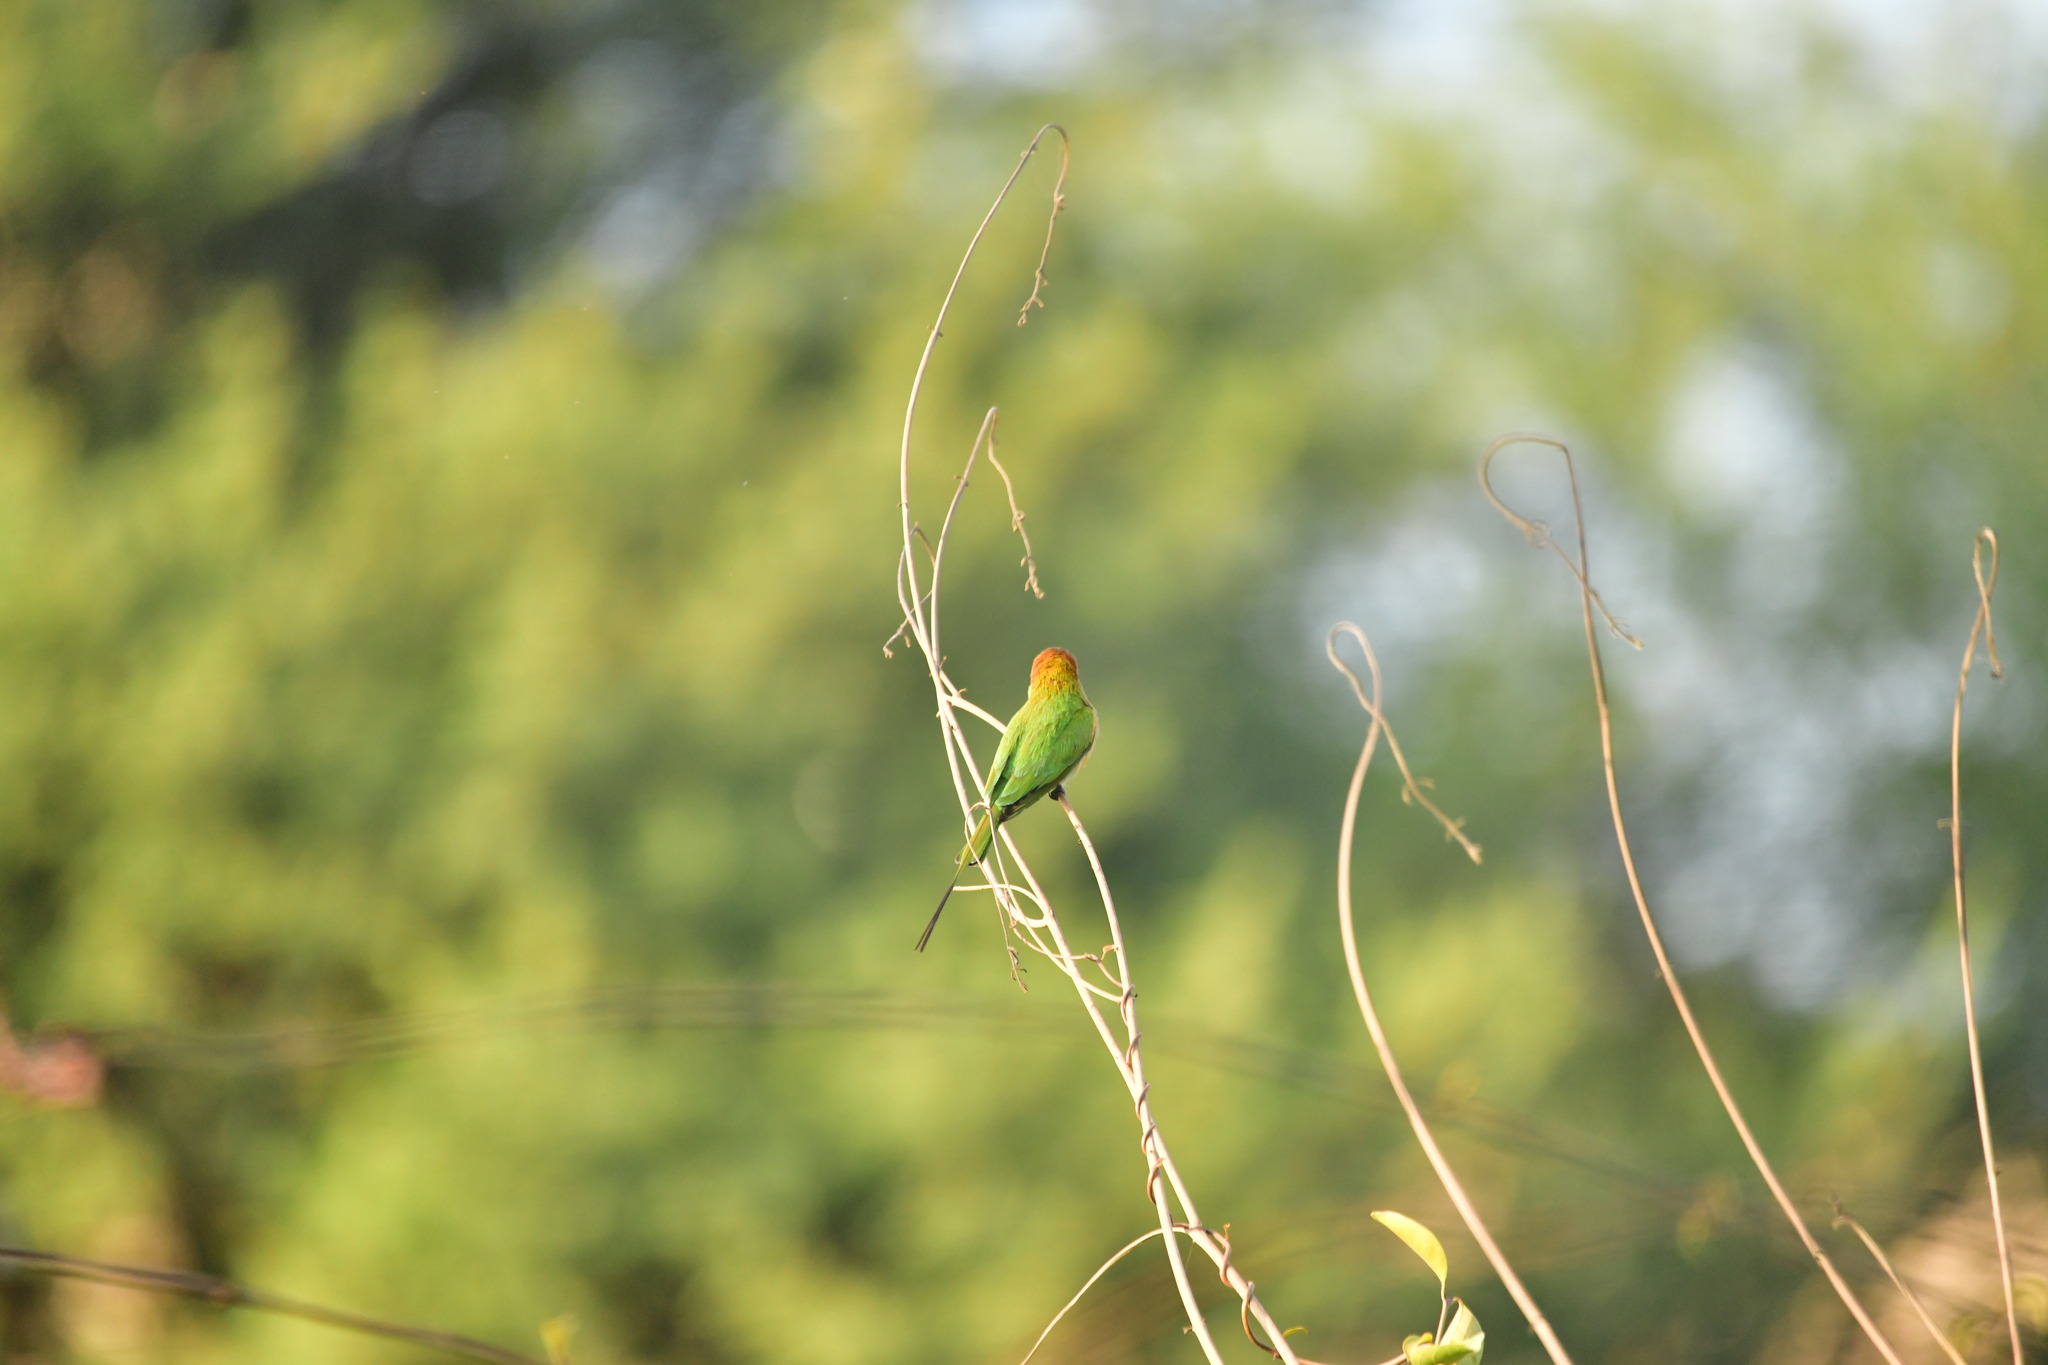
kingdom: Animalia
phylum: Chordata
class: Aves
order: Coraciiformes
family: Meropidae
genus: Merops
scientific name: Merops orientalis
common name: Green bee-eater
